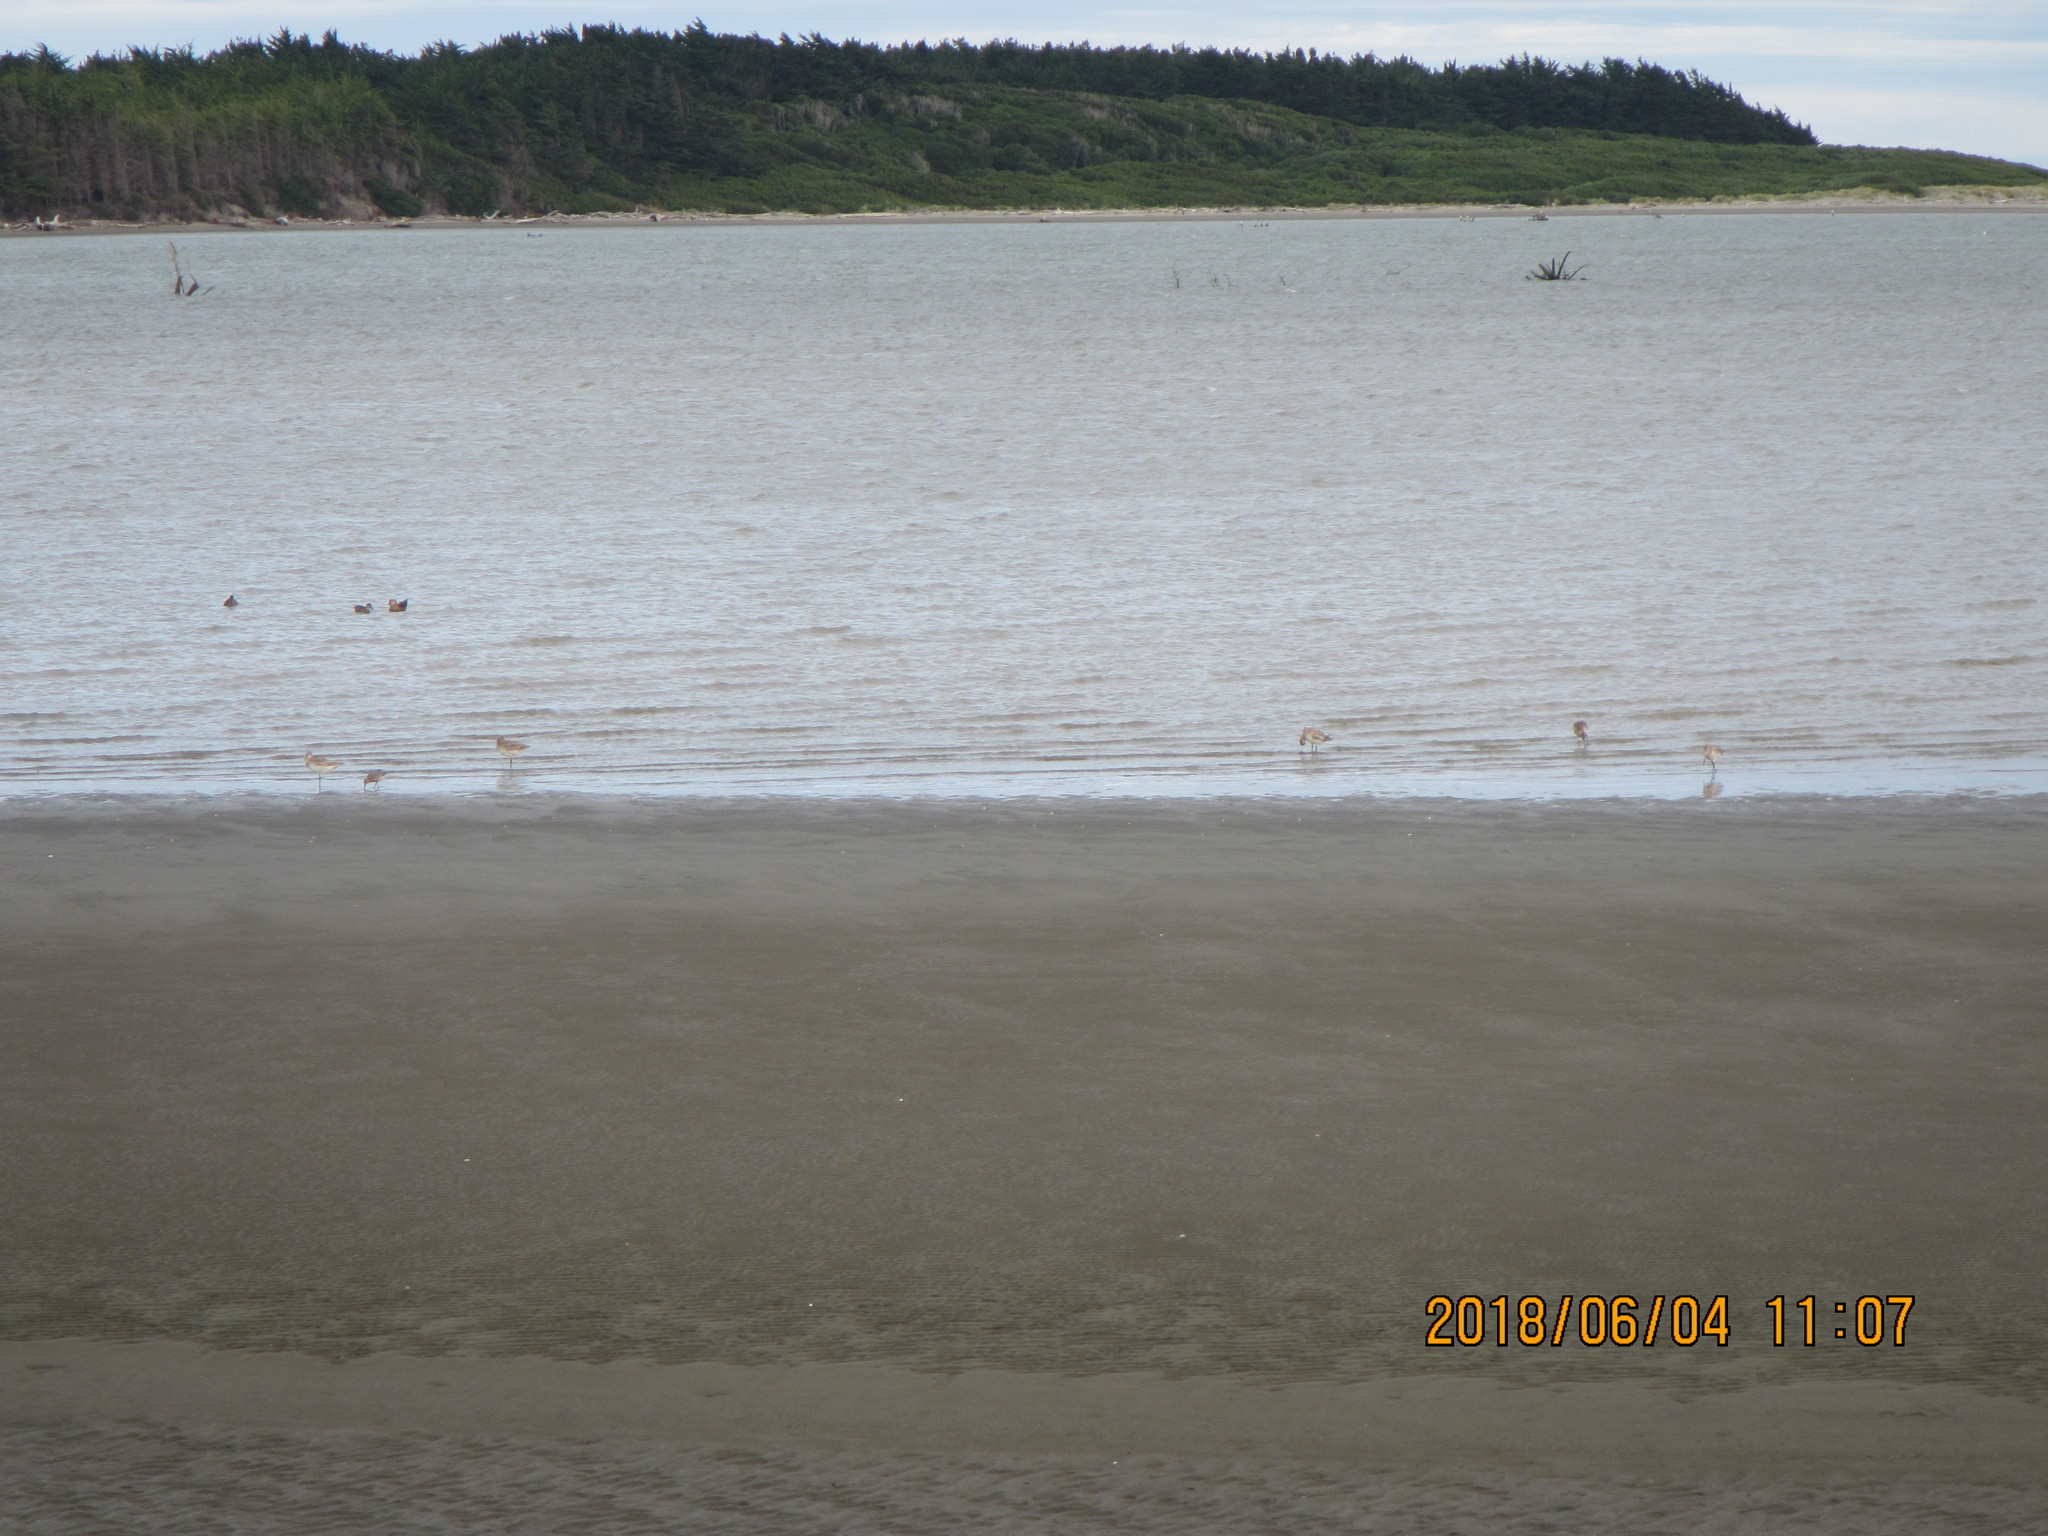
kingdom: Animalia
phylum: Chordata
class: Aves
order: Charadriiformes
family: Scolopacidae
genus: Limosa
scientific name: Limosa lapponica
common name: Bar-tailed godwit
